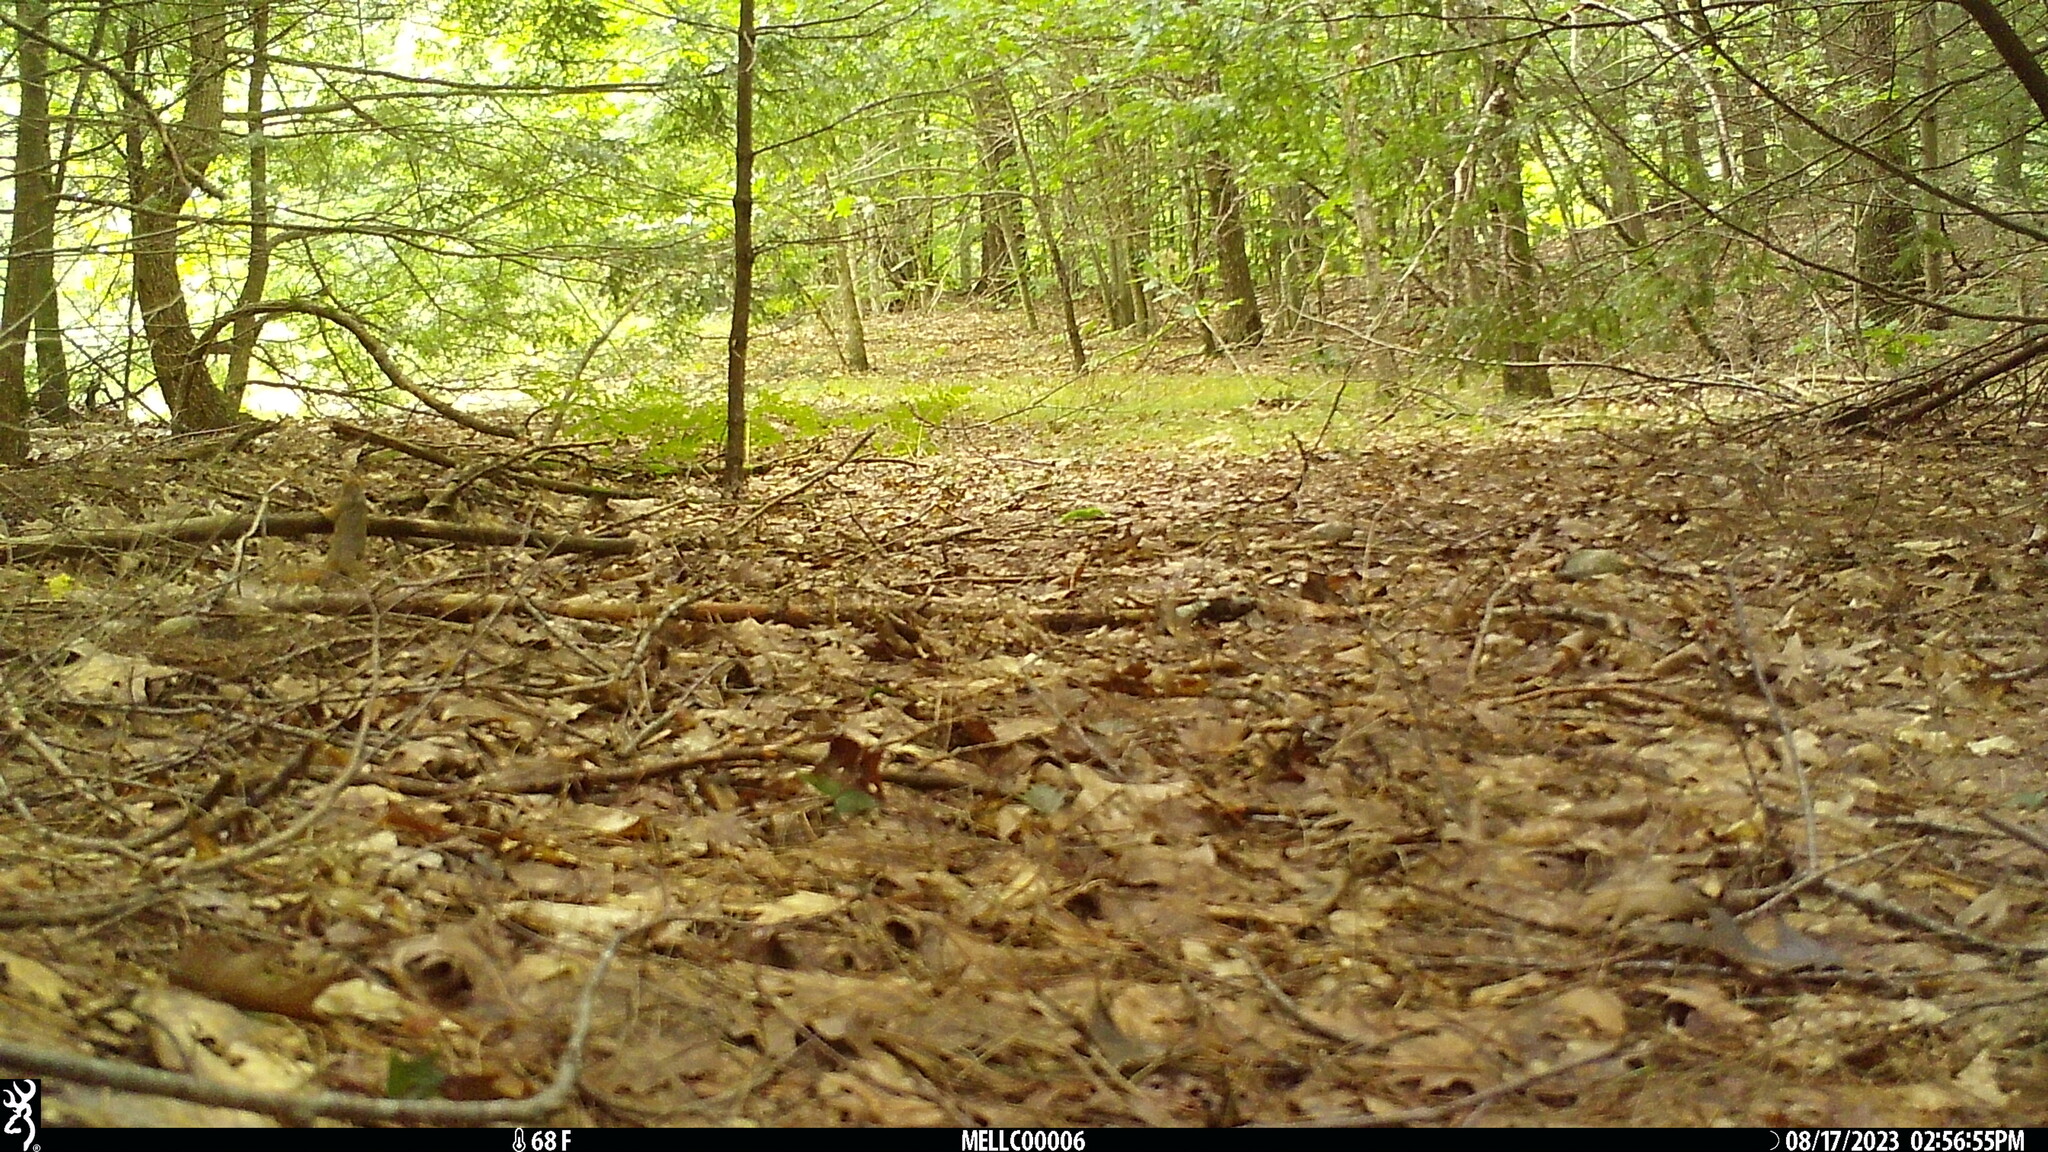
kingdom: Animalia
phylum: Chordata
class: Mammalia
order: Rodentia
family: Sciuridae
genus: Tamiasciurus
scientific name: Tamiasciurus hudsonicus
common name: Red squirrel
